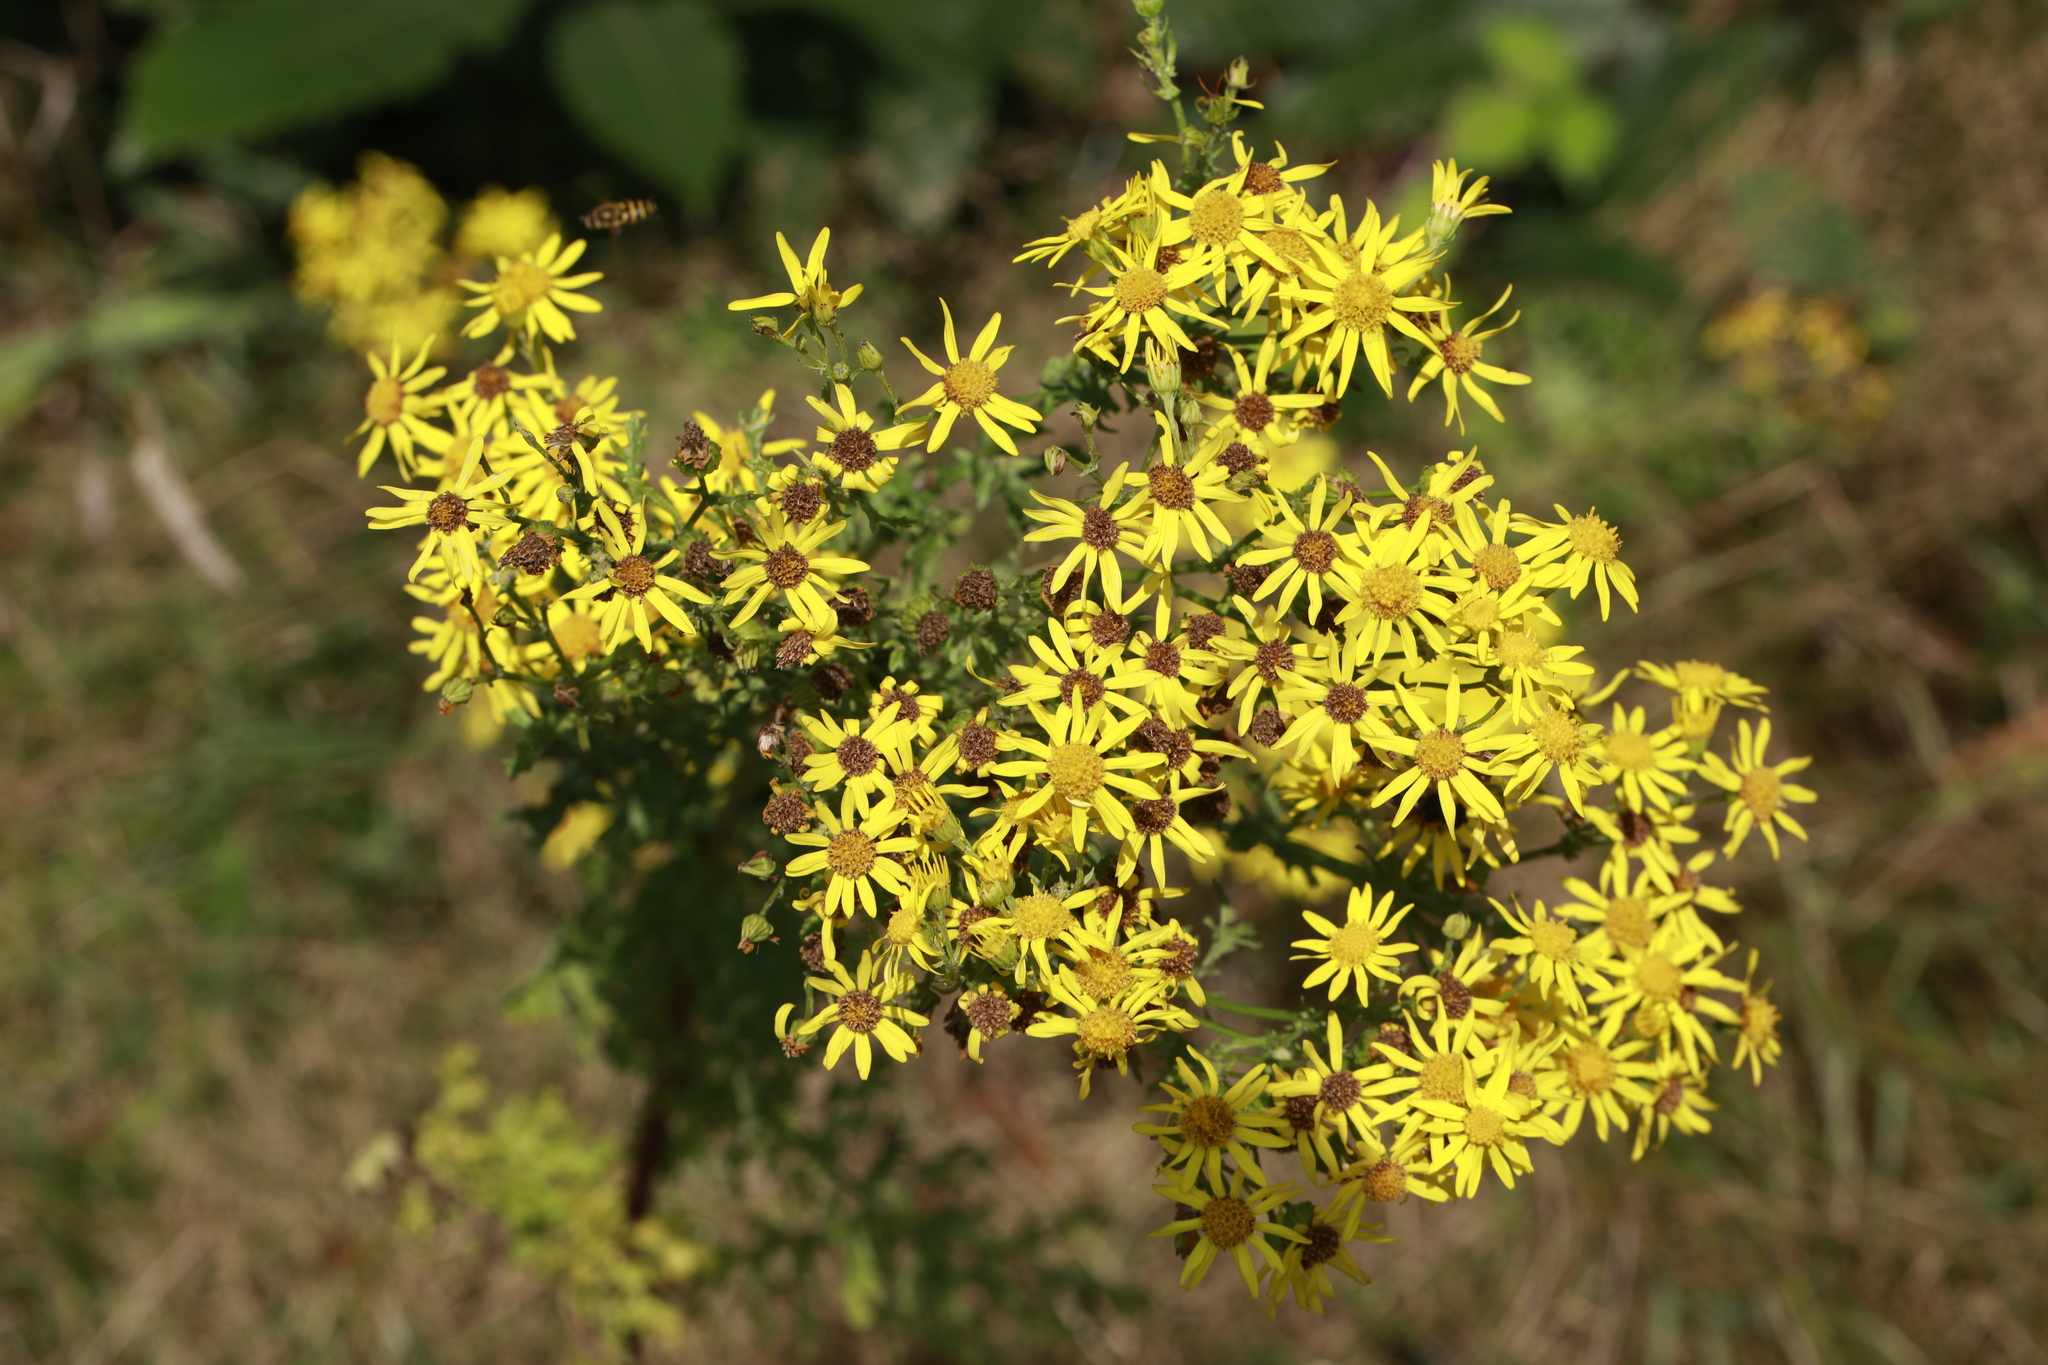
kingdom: Plantae
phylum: Tracheophyta
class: Magnoliopsida
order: Asterales
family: Asteraceae
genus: Jacobaea
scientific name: Jacobaea vulgaris
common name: Stinking willie
